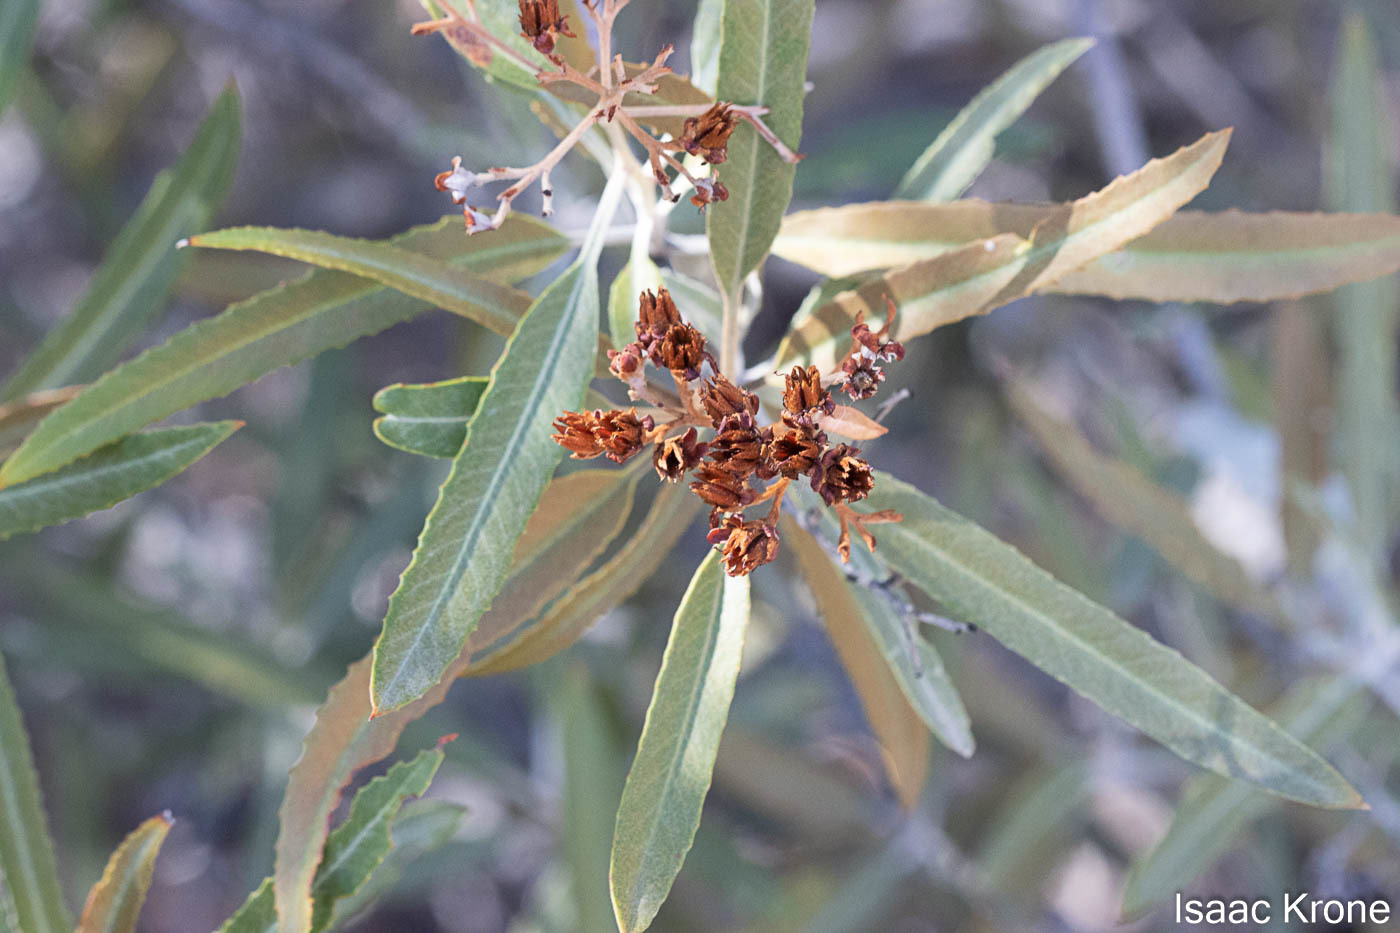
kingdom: Plantae
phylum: Tracheophyta
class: Magnoliopsida
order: Rosales
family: Rosaceae
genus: Vauquelinia
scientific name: Vauquelinia californica
